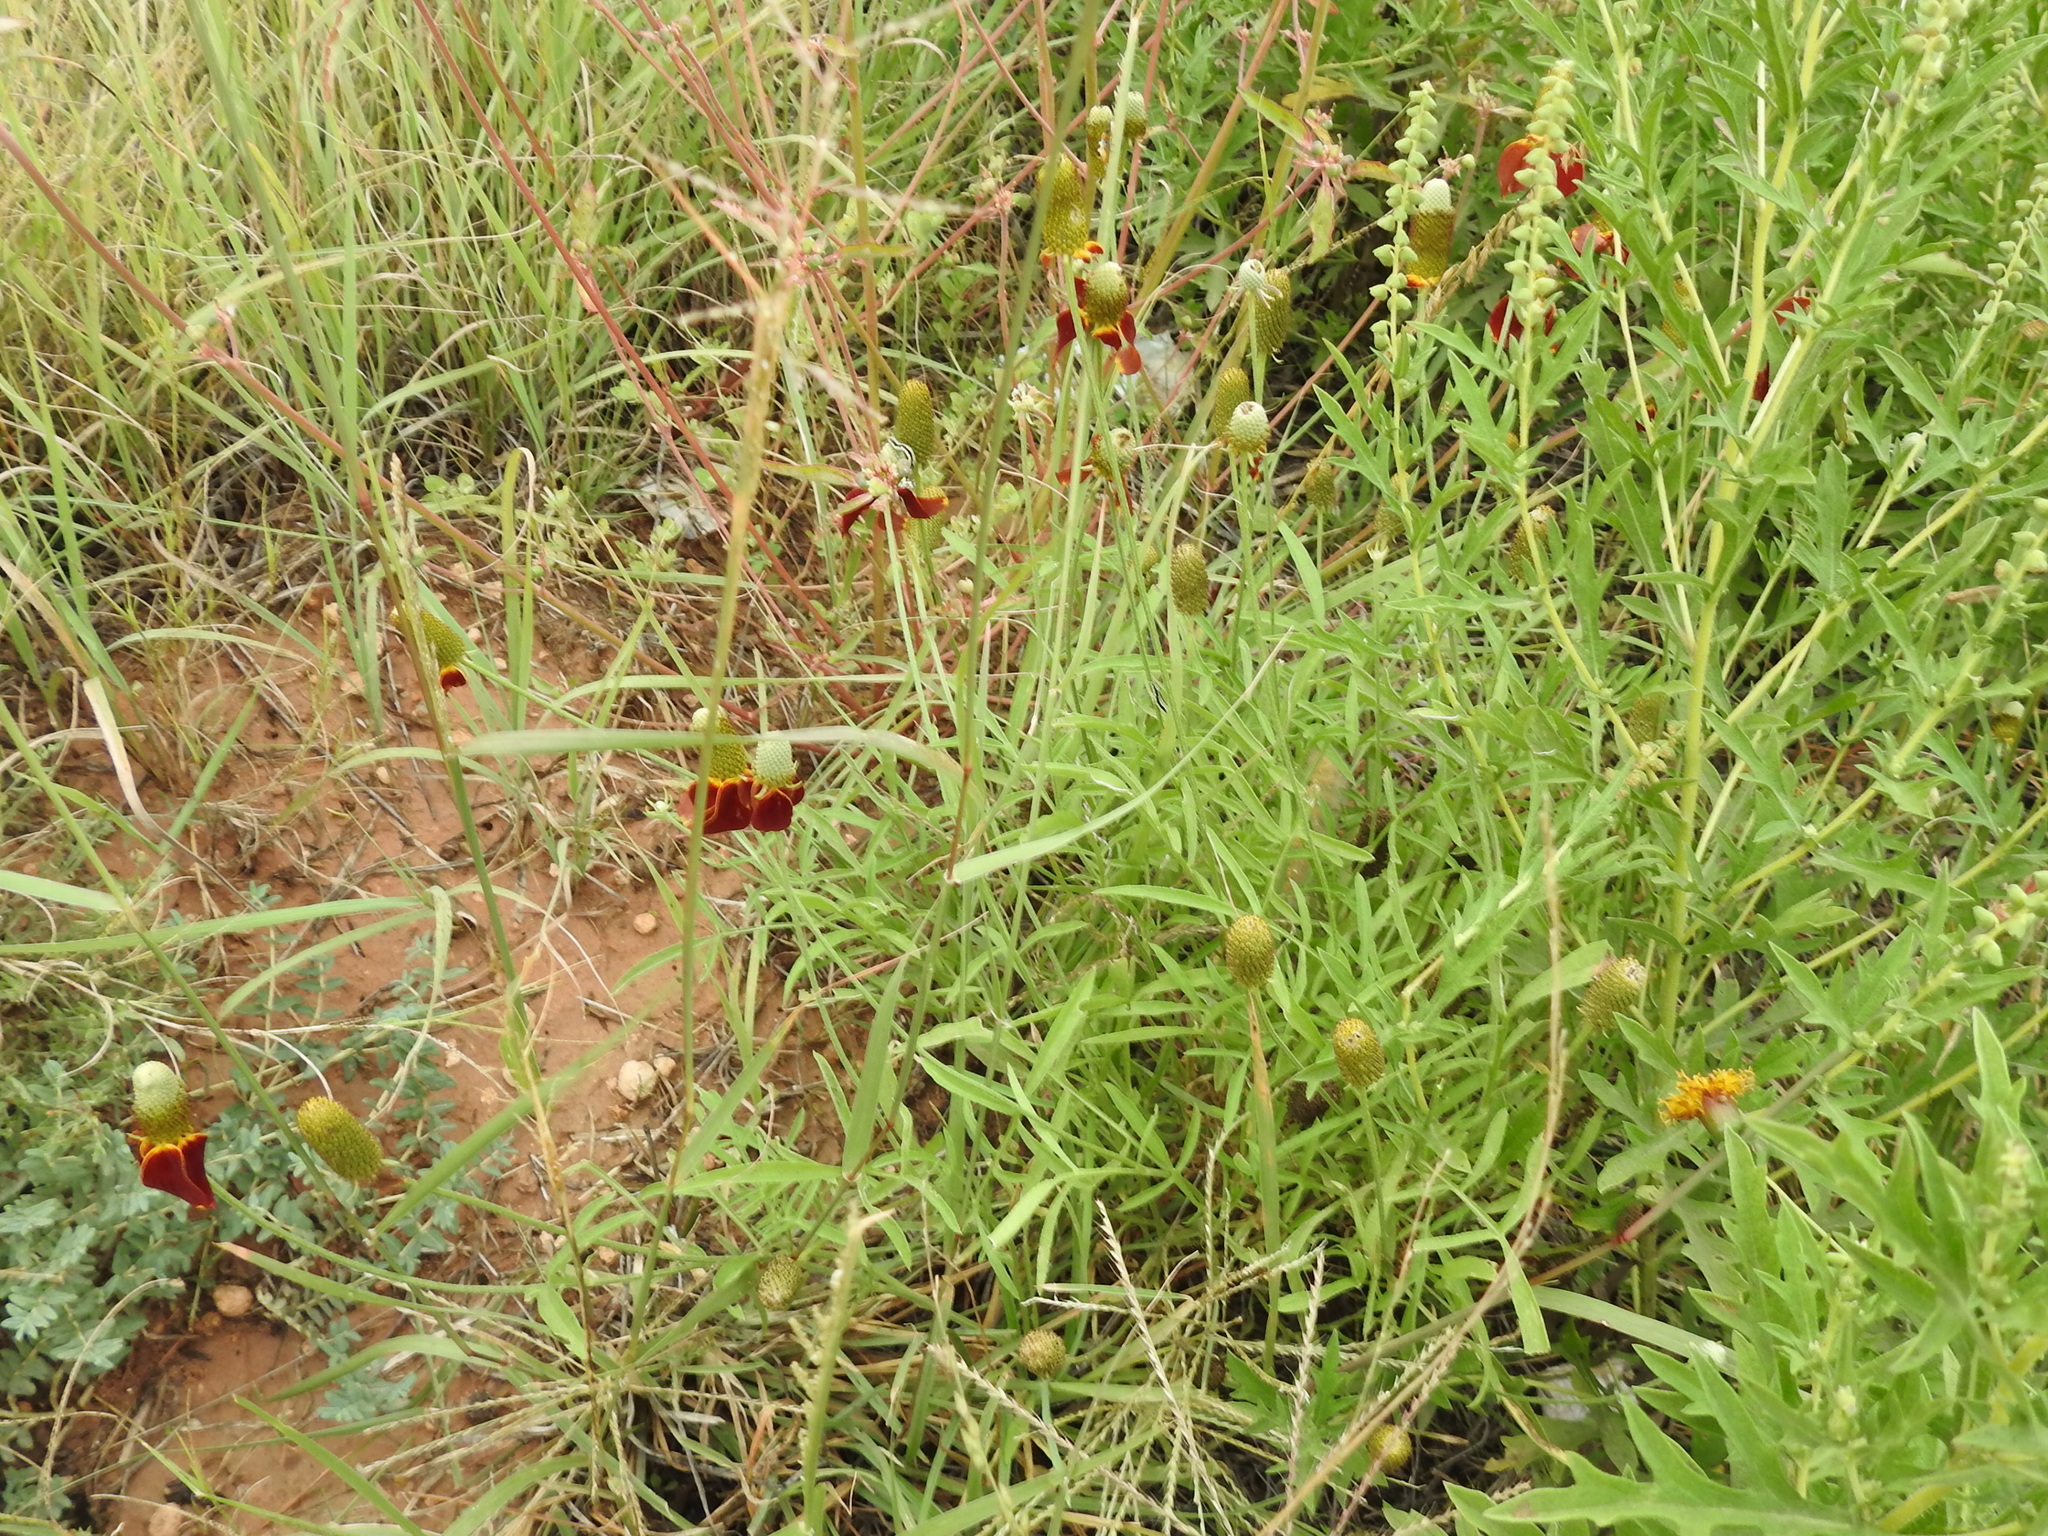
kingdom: Plantae
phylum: Tracheophyta
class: Magnoliopsida
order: Asterales
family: Asteraceae
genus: Ratibida
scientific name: Ratibida columnifera
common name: Prairie coneflower
